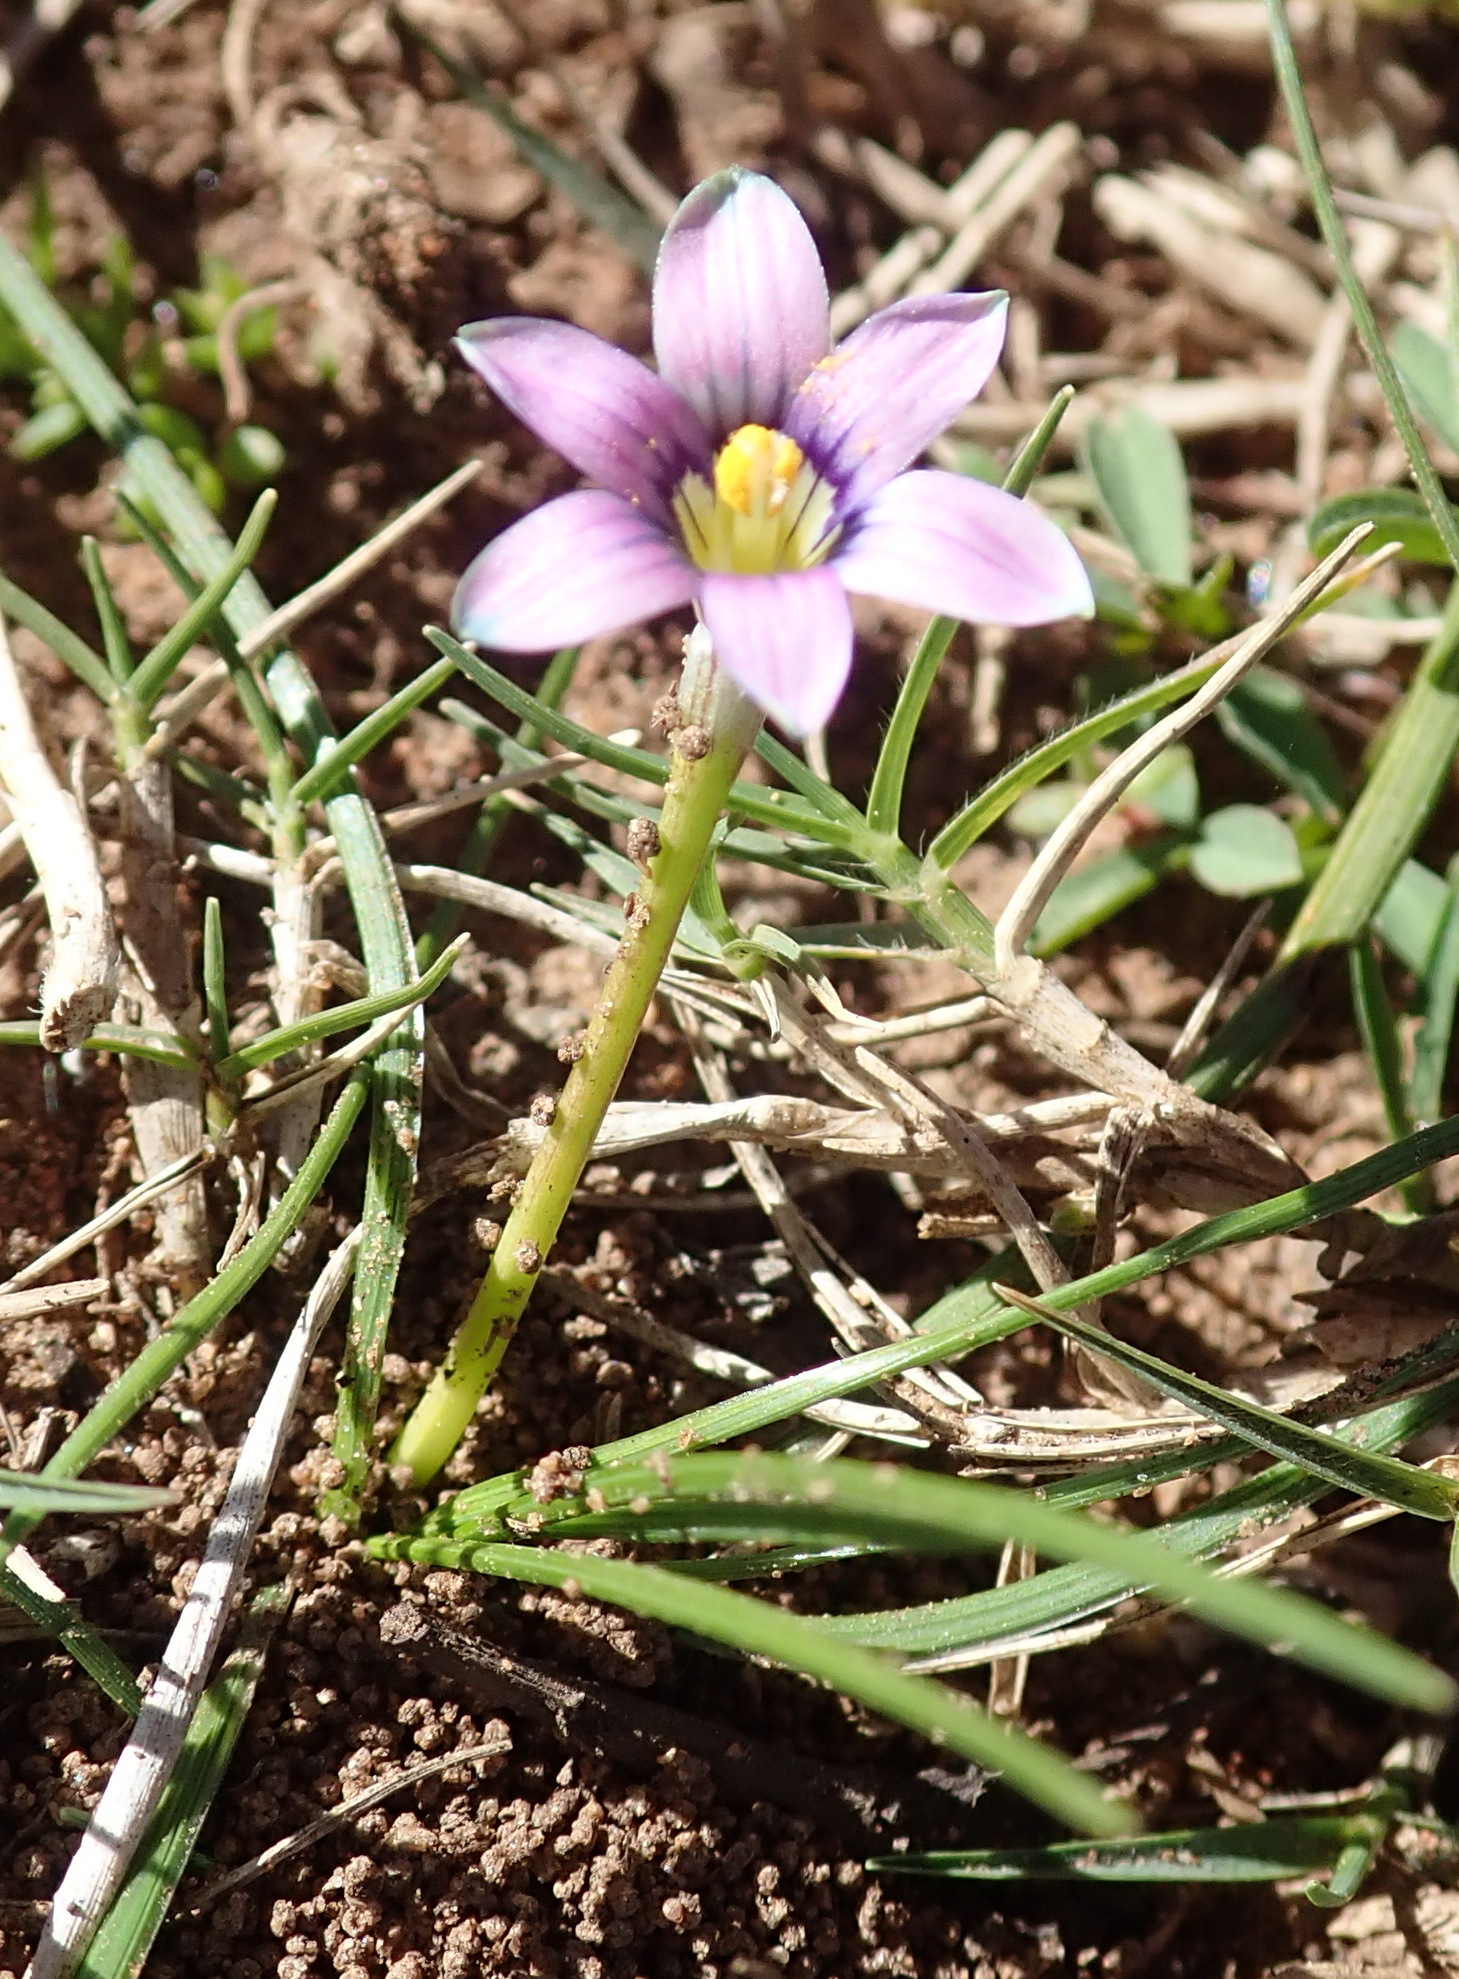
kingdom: Plantae
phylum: Tracheophyta
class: Liliopsida
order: Asparagales
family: Iridaceae
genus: Romulea
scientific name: Romulea minutiflora
